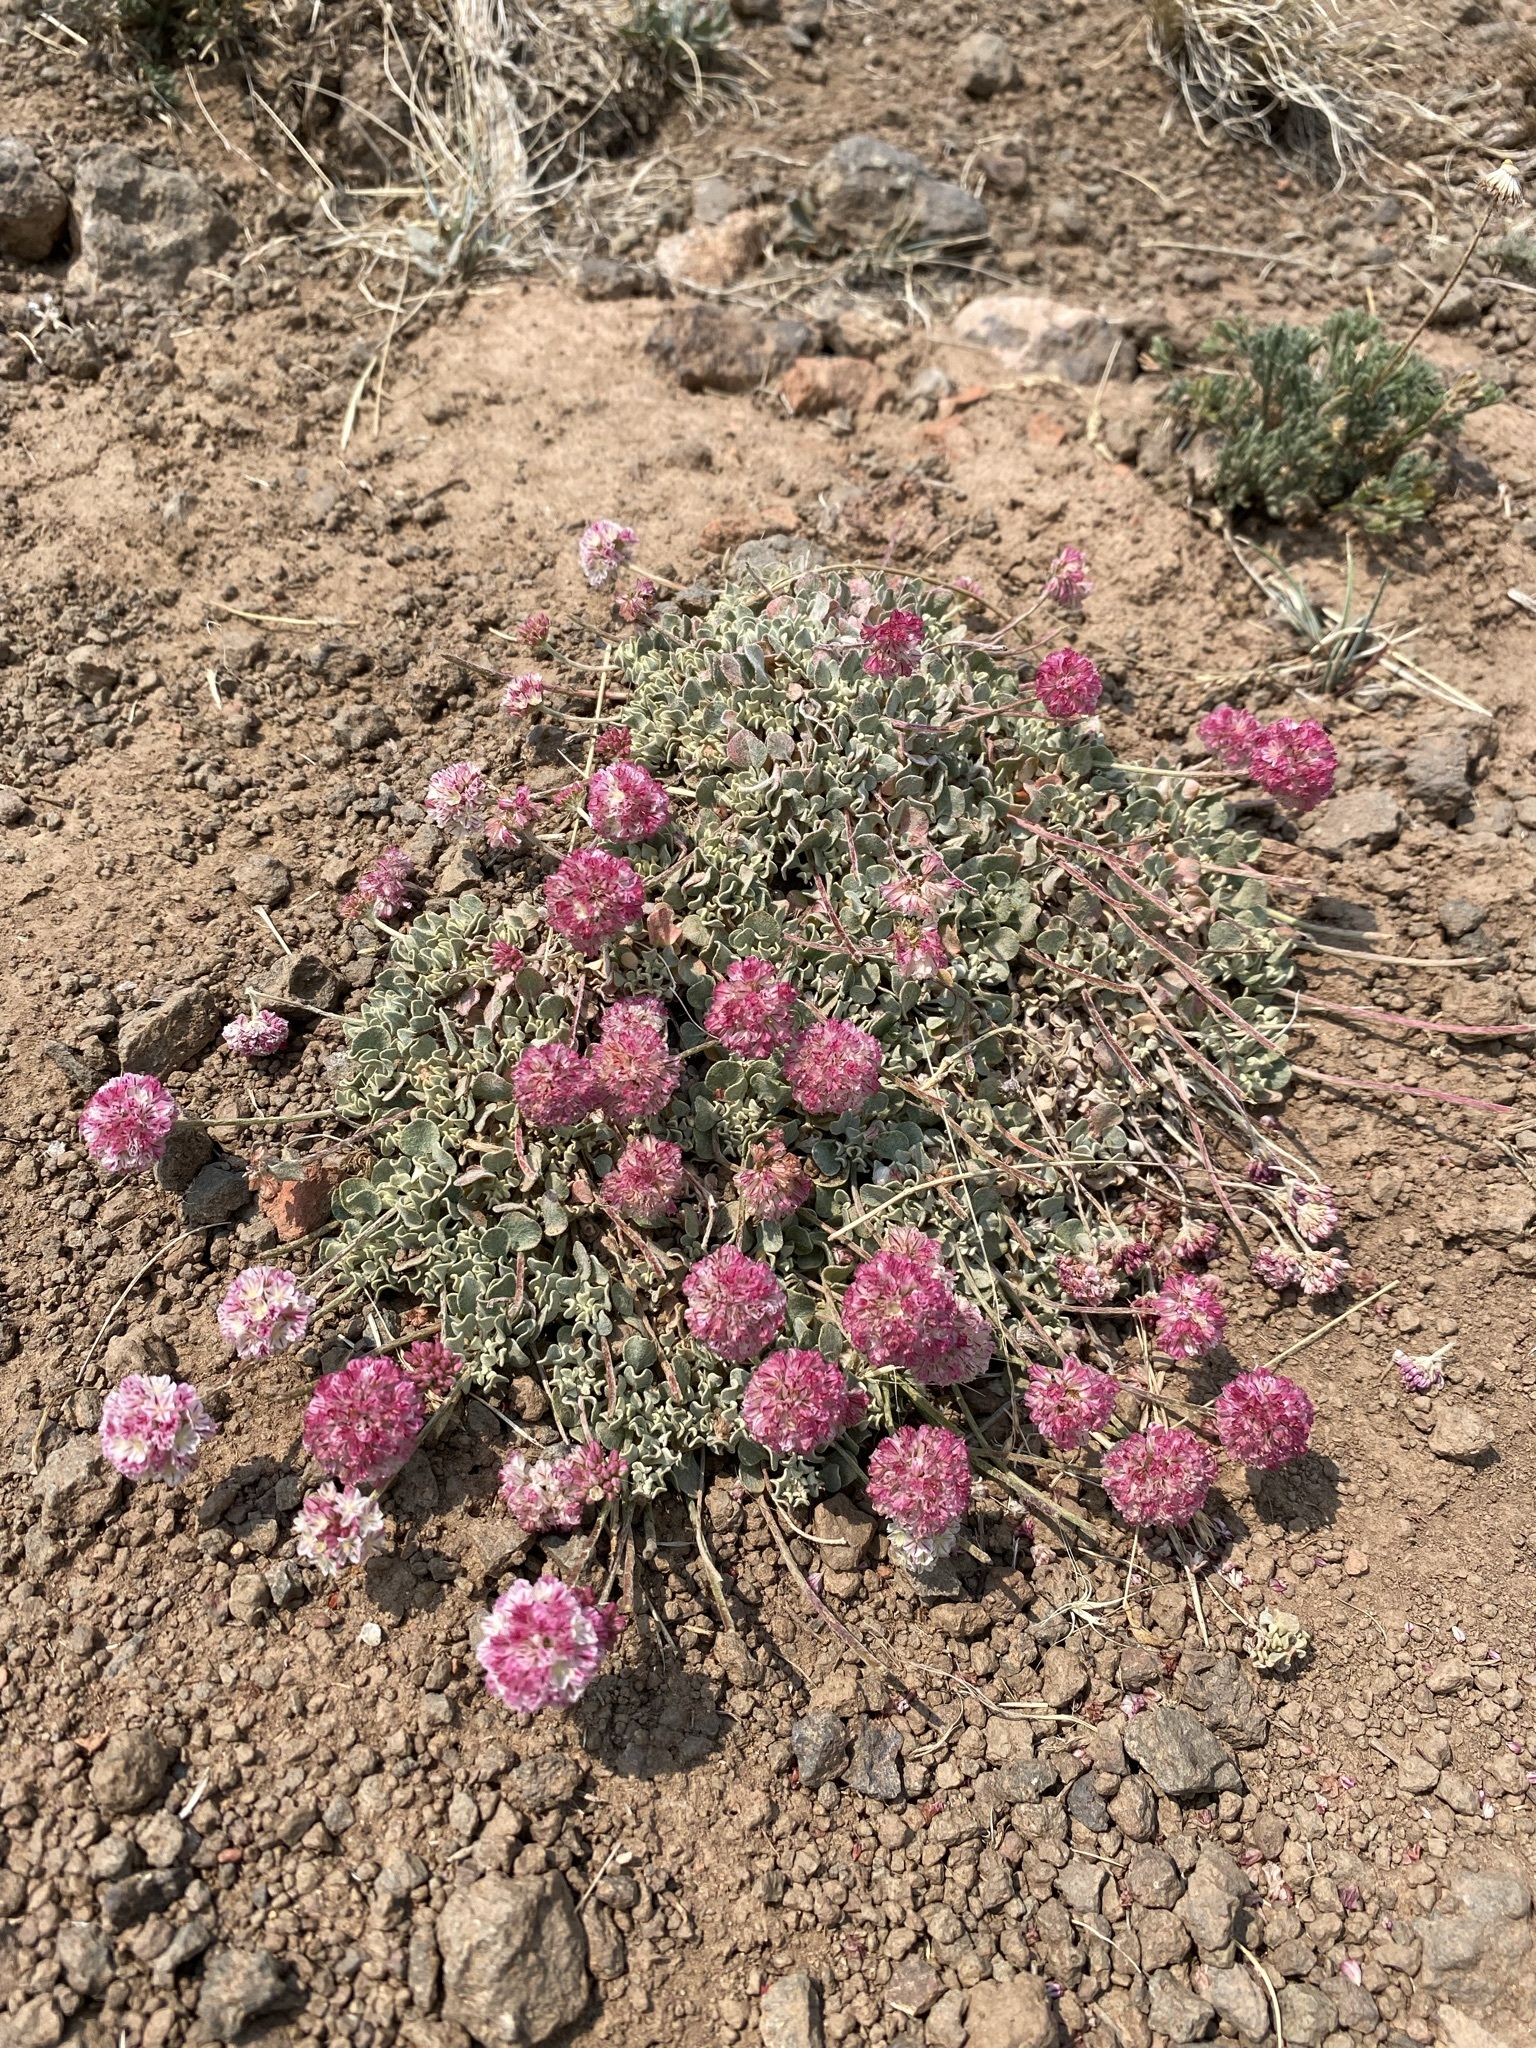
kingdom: Plantae
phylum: Tracheophyta
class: Magnoliopsida
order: Caryophyllales
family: Polygonaceae
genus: Eriogonum
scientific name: Eriogonum ovalifolium
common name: Cushion buckwheat
